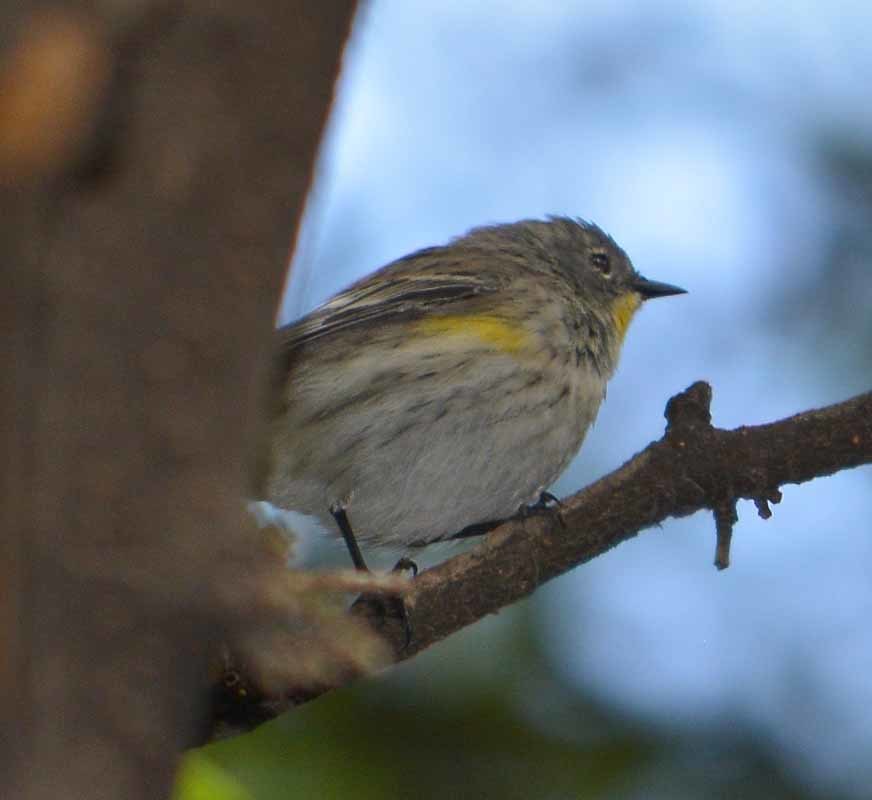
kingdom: Animalia
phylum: Chordata
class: Aves
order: Passeriformes
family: Parulidae
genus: Setophaga
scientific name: Setophaga coronata
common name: Myrtle warbler
